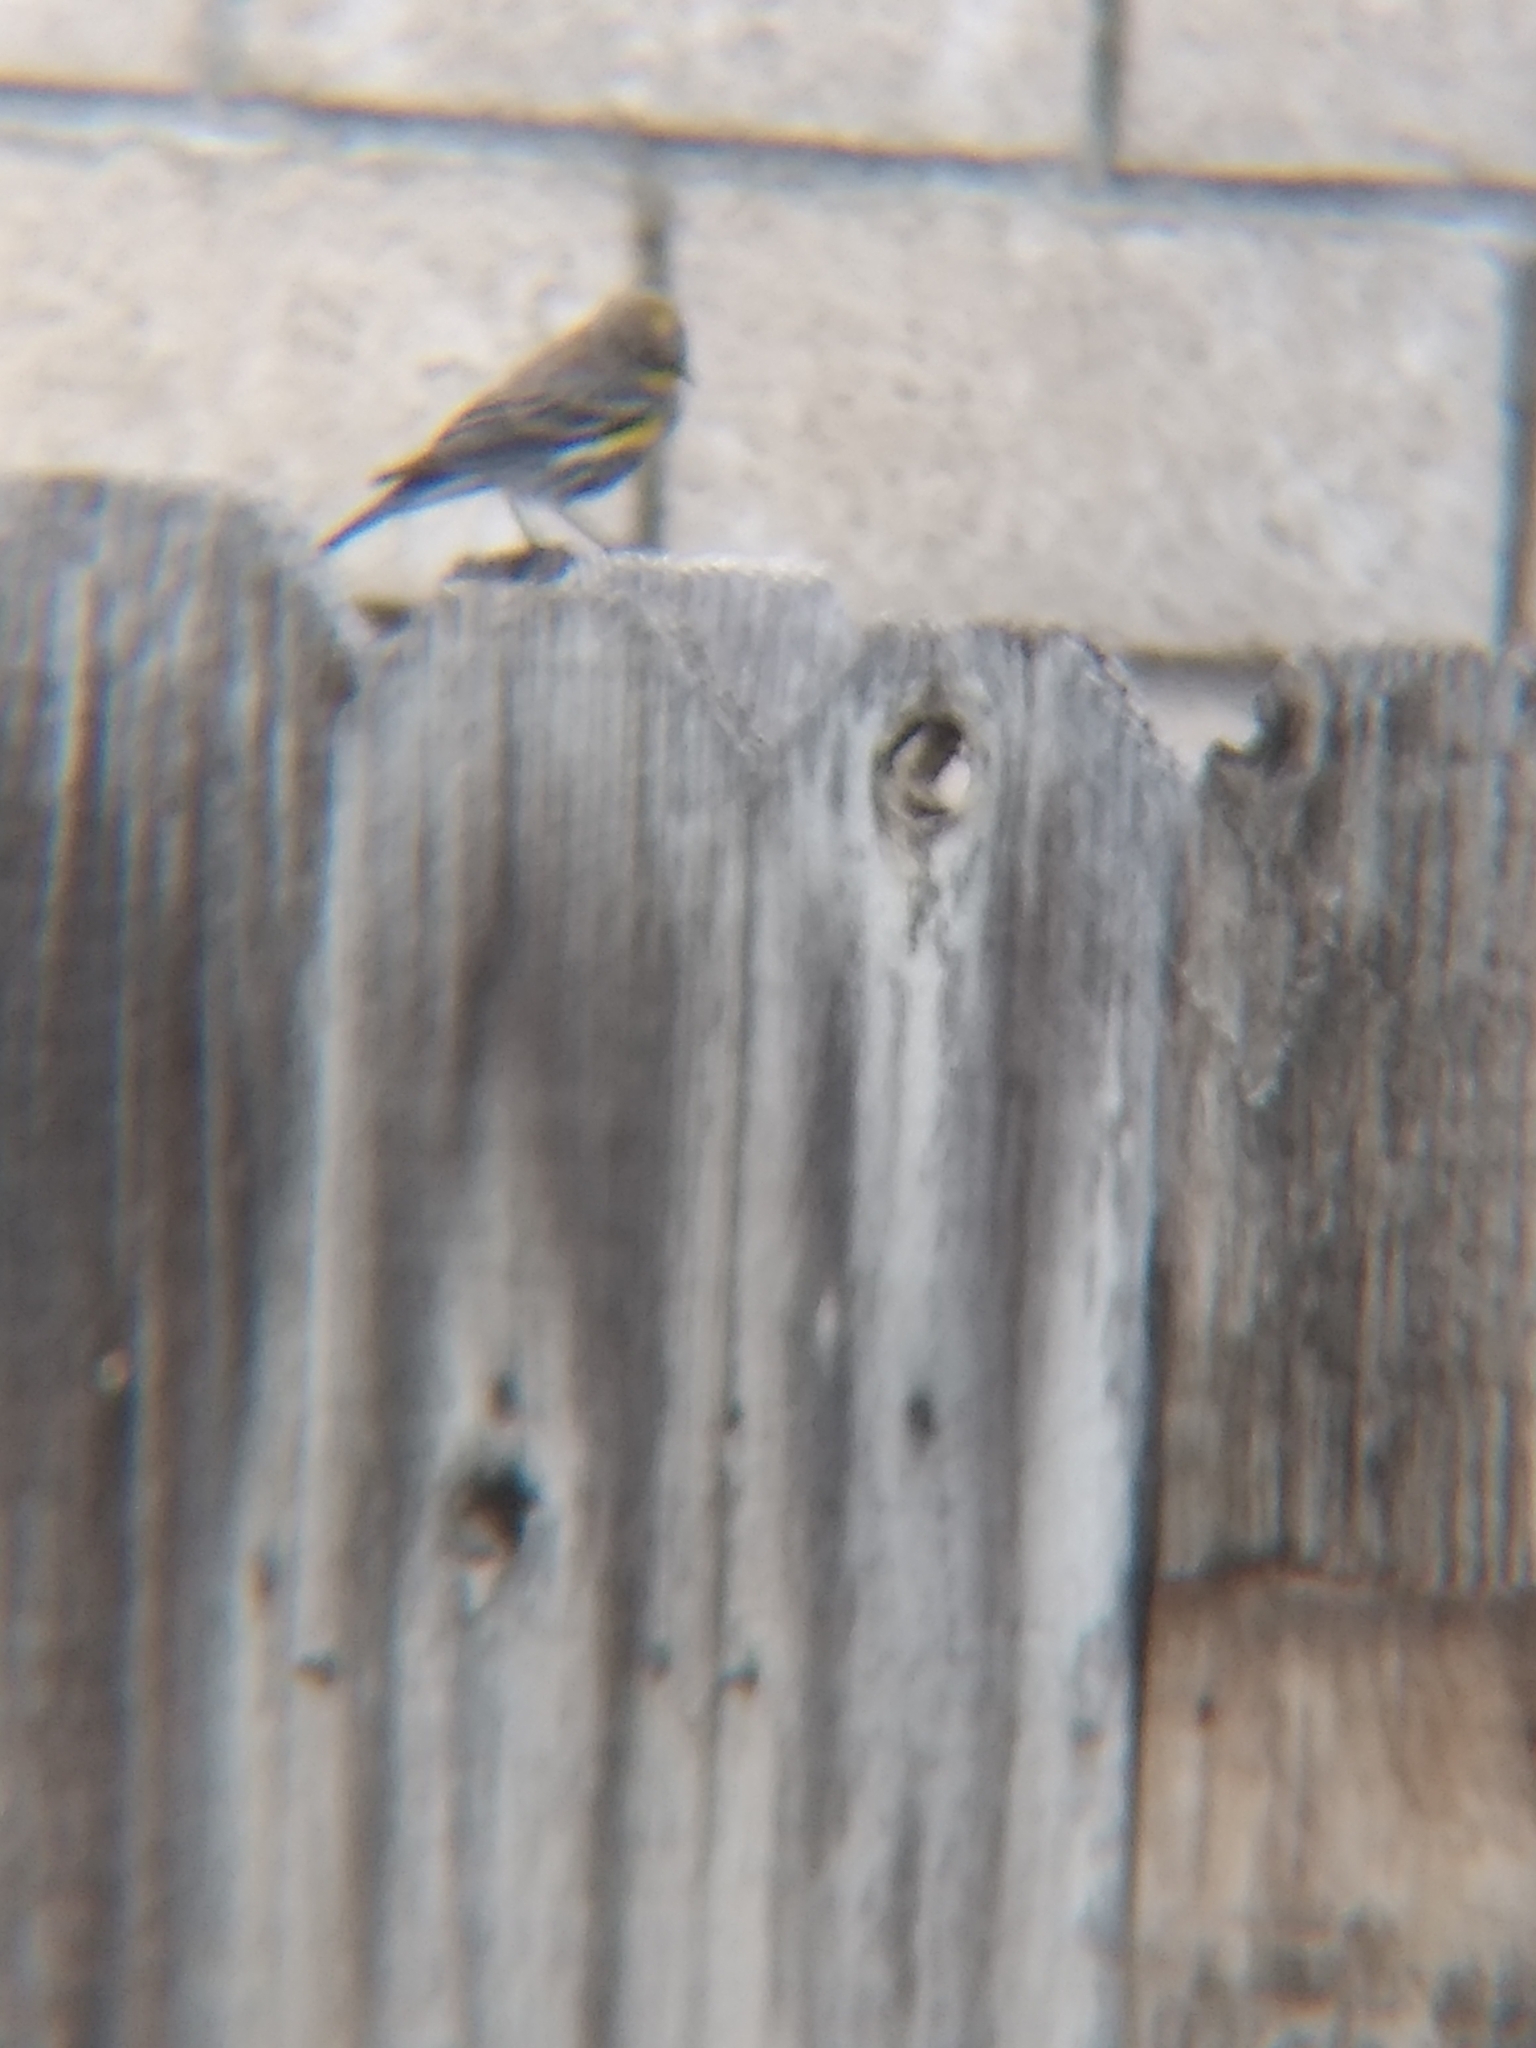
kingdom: Animalia
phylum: Chordata
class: Aves
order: Passeriformes
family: Parulidae
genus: Setophaga
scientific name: Setophaga coronata
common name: Myrtle warbler
